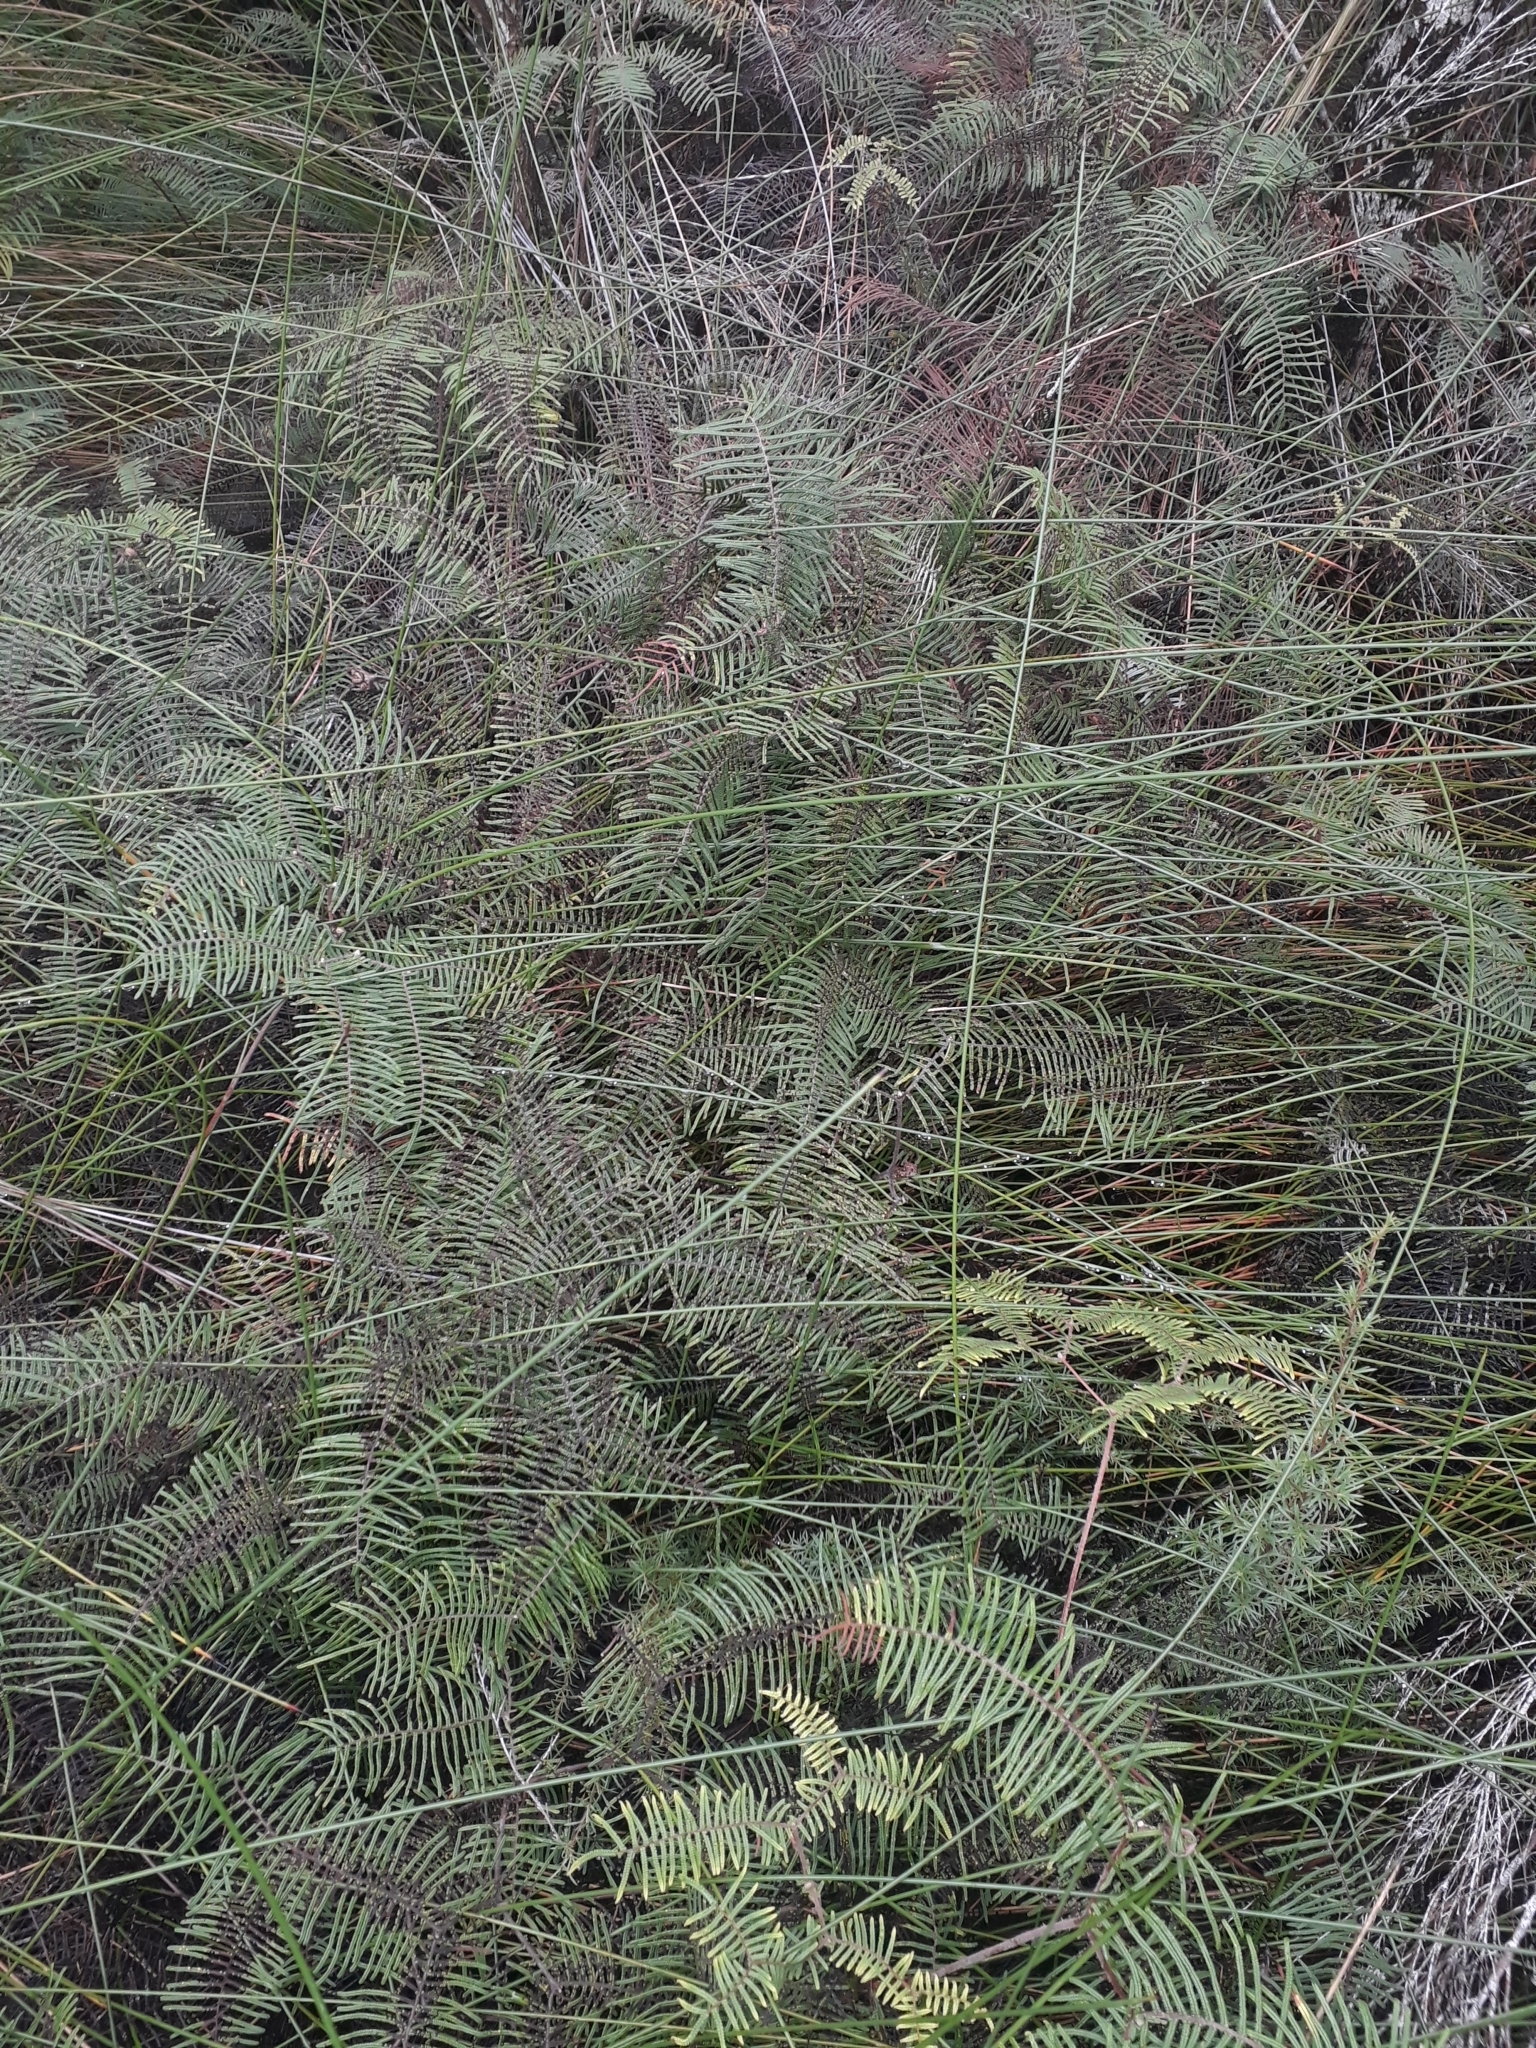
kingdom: Plantae
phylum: Tracheophyta
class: Polypodiopsida
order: Gleicheniales
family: Gleicheniaceae
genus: Gleichenia
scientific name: Gleichenia dicarpa
